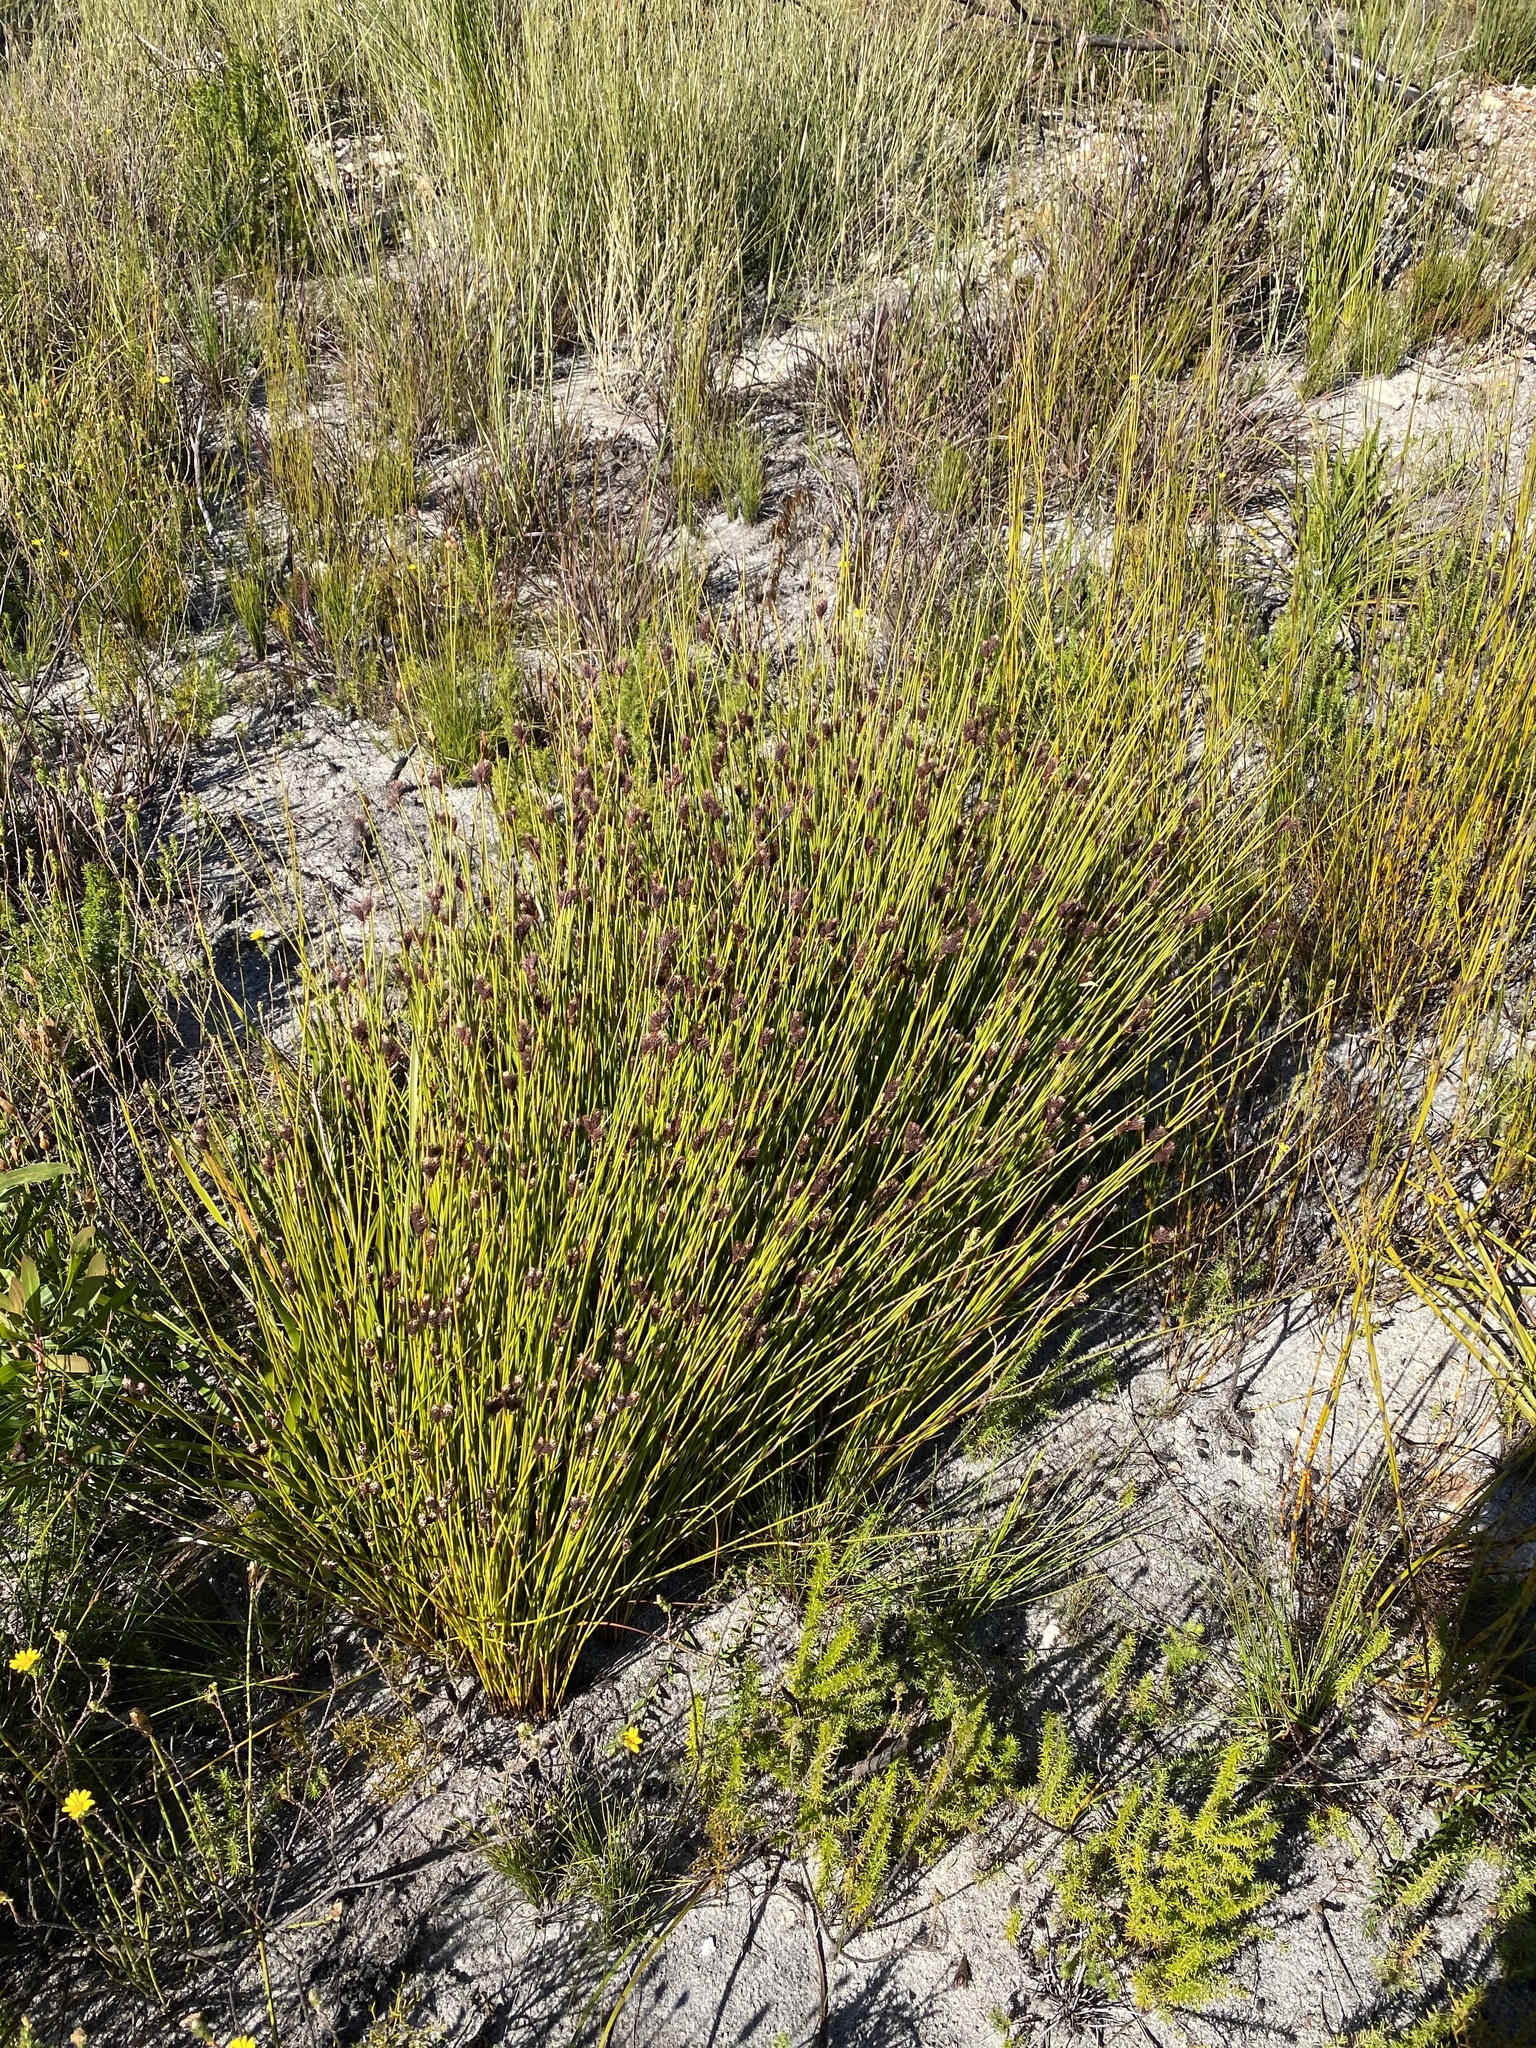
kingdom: Plantae
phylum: Tracheophyta
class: Liliopsida
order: Poales
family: Restionaceae
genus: Hypodiscus
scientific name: Hypodiscus aristatus
